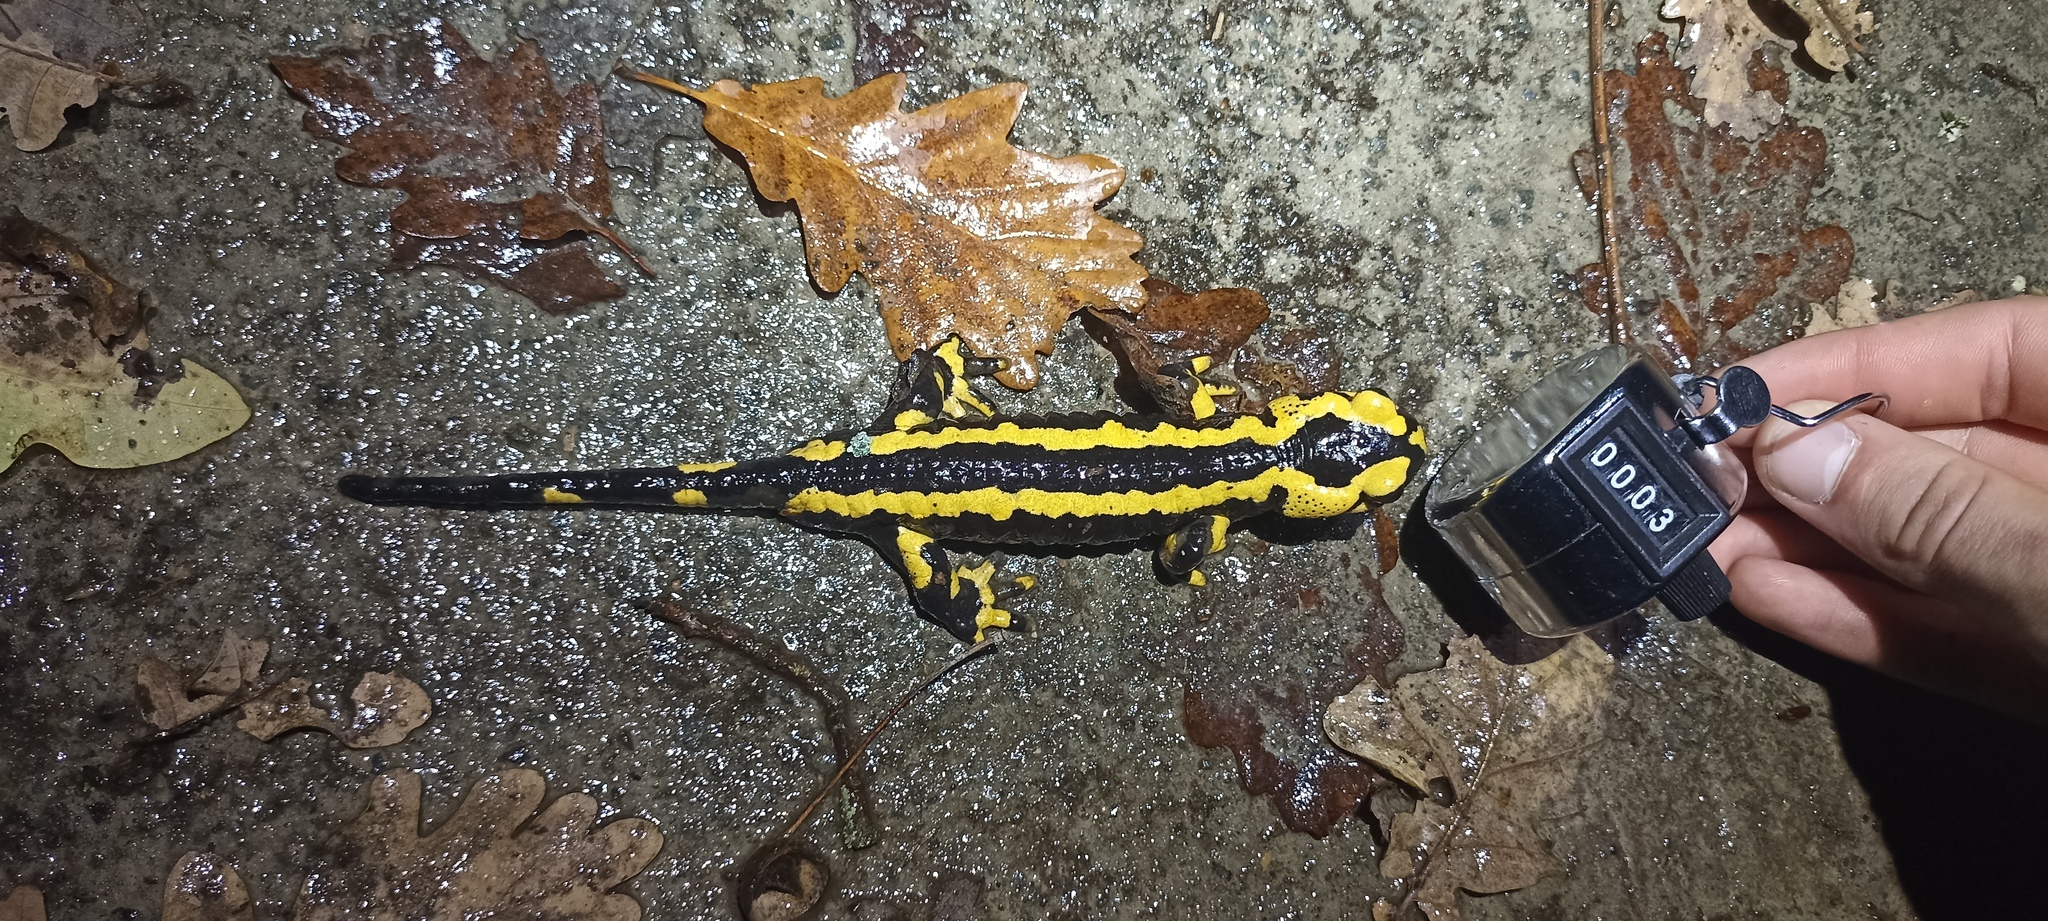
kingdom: Animalia
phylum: Chordata
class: Amphibia
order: Caudata
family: Salamandridae
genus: Salamandra
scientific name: Salamandra salamandra
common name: Fire salamander
